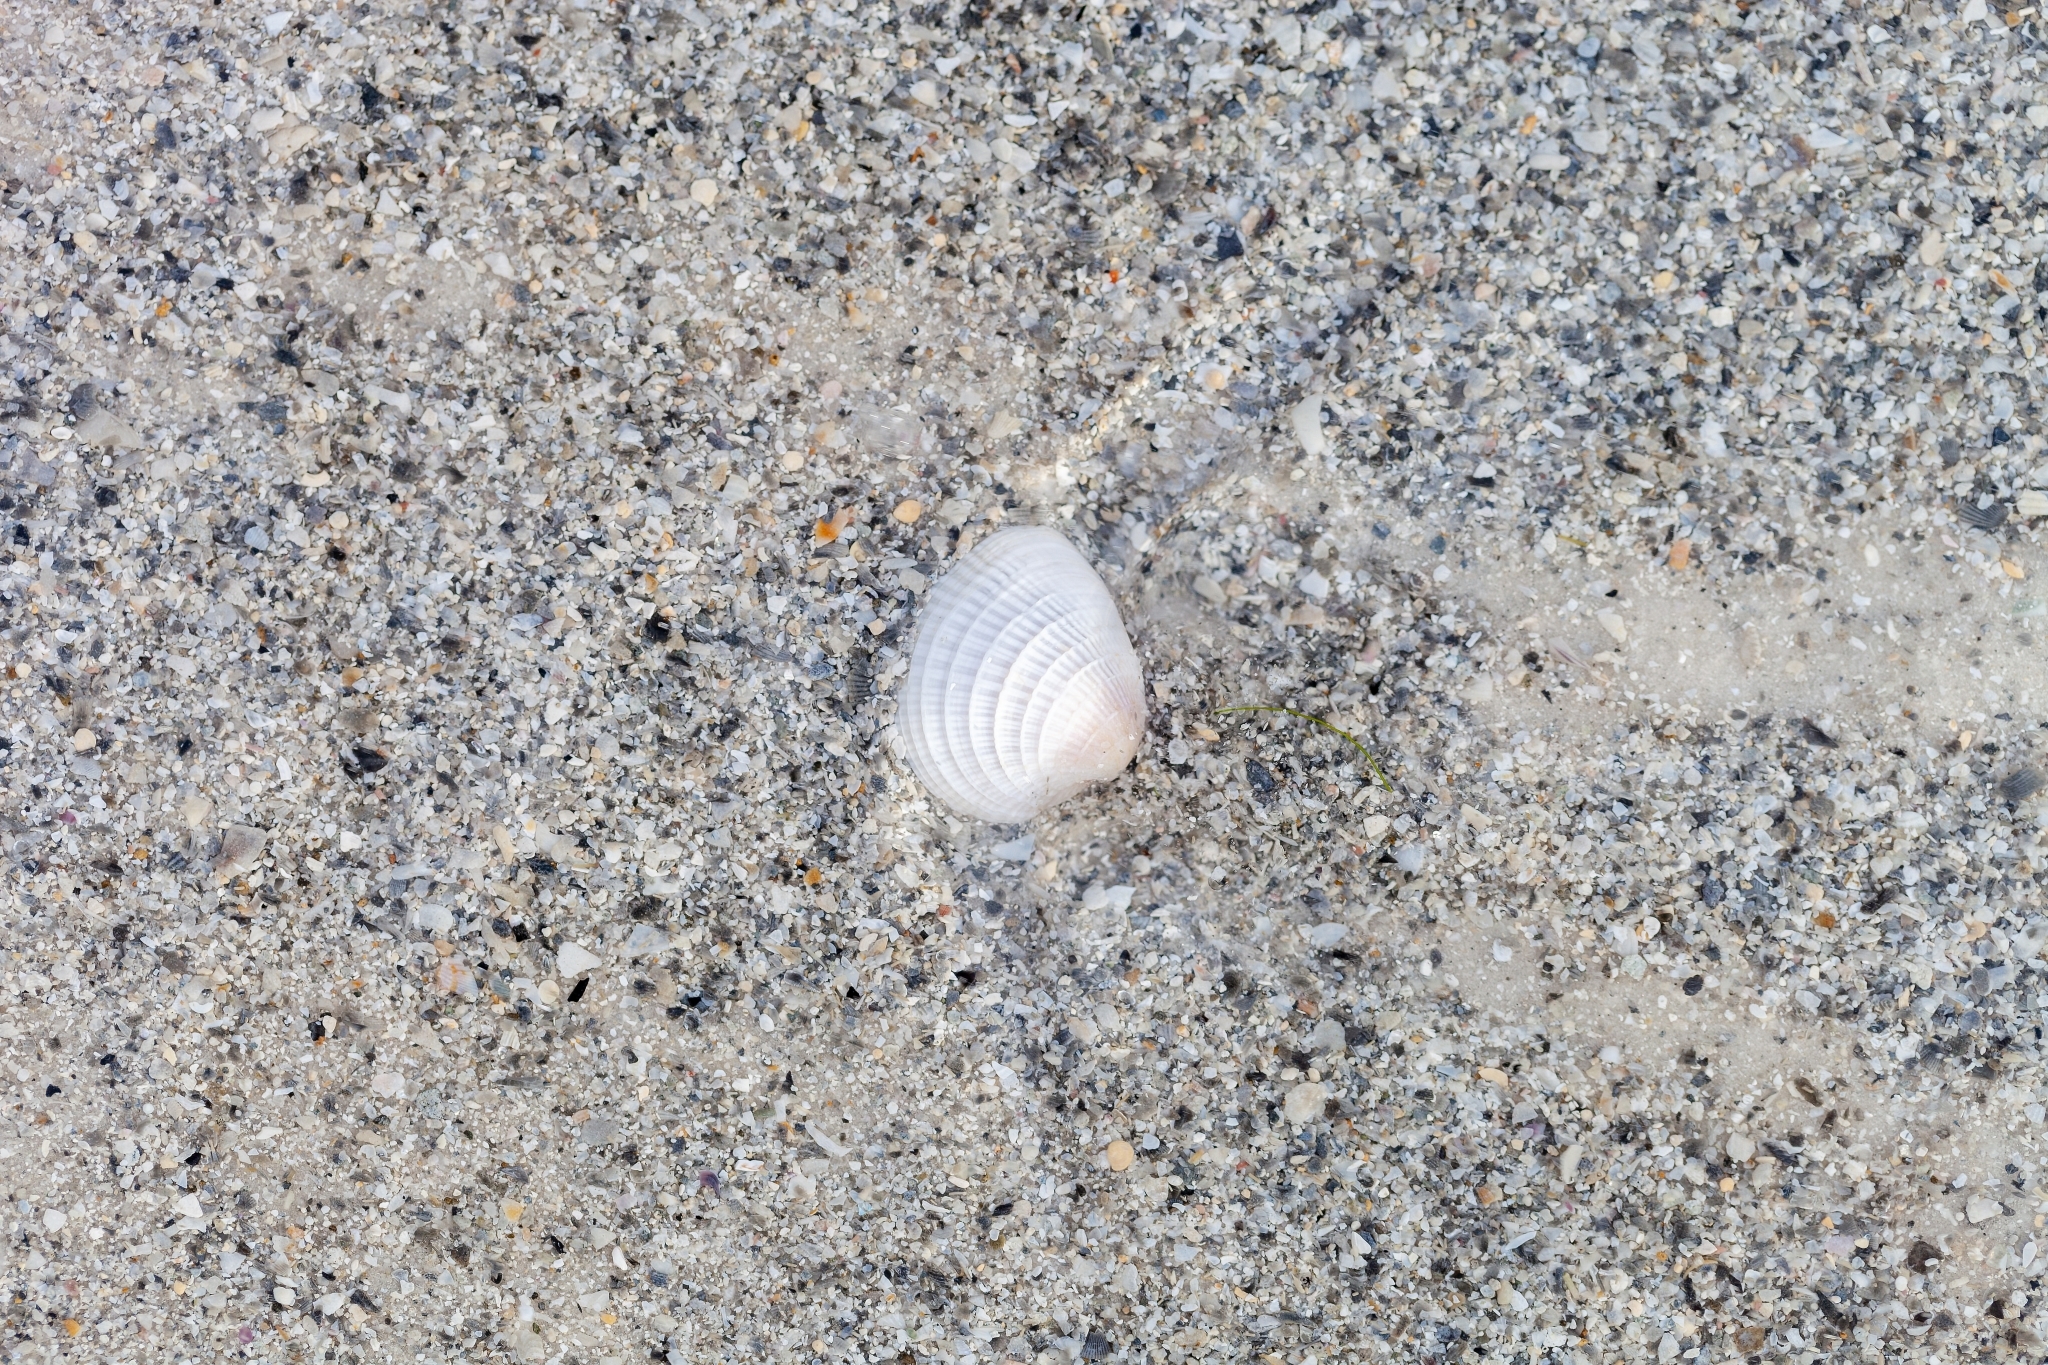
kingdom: Animalia
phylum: Mollusca
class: Bivalvia
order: Venerida
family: Veneridae
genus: Chione
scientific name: Chione elevata
